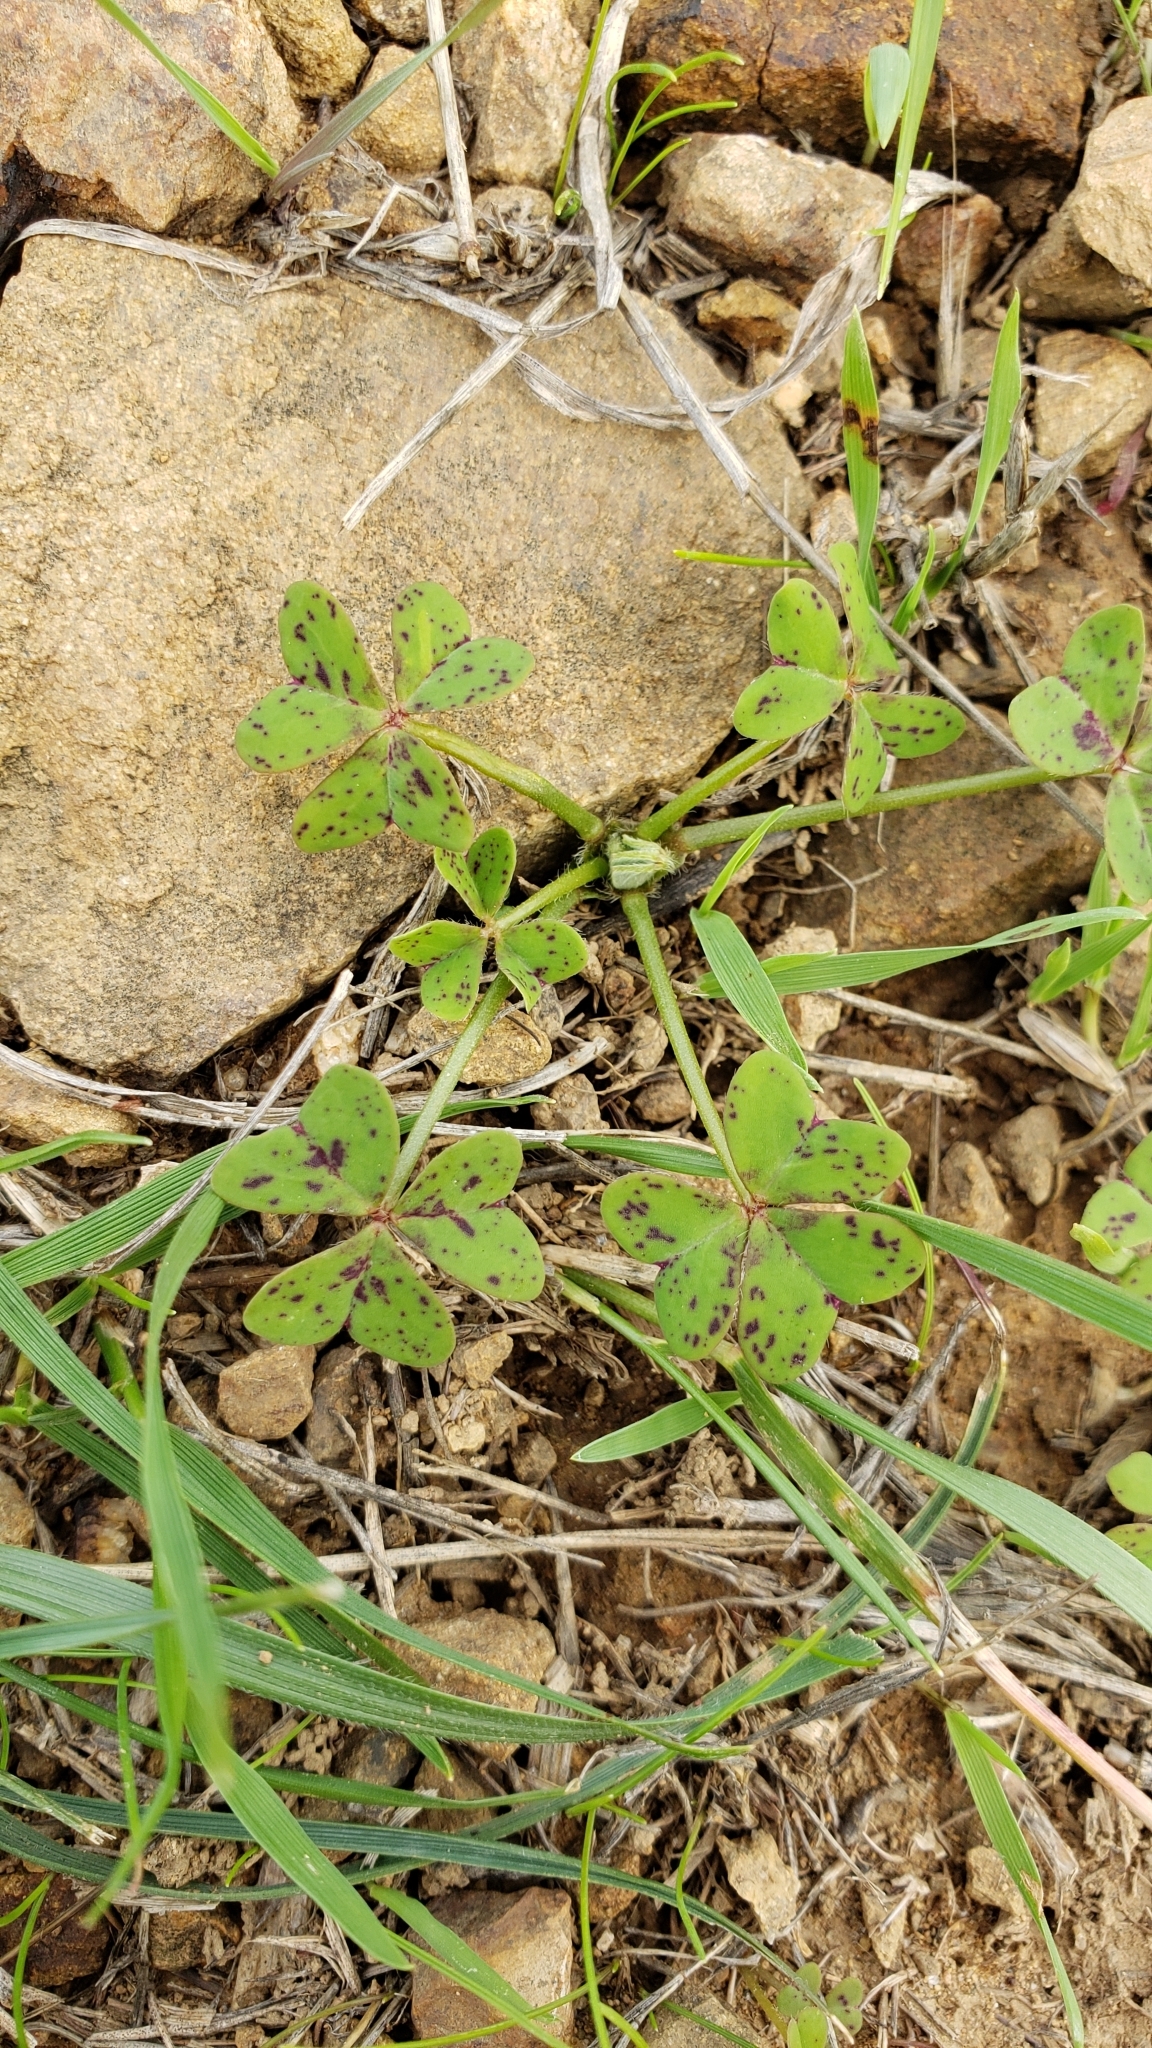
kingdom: Plantae
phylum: Tracheophyta
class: Magnoliopsida
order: Oxalidales
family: Oxalidaceae
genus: Oxalis
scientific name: Oxalis pes-caprae
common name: Bermuda-buttercup
